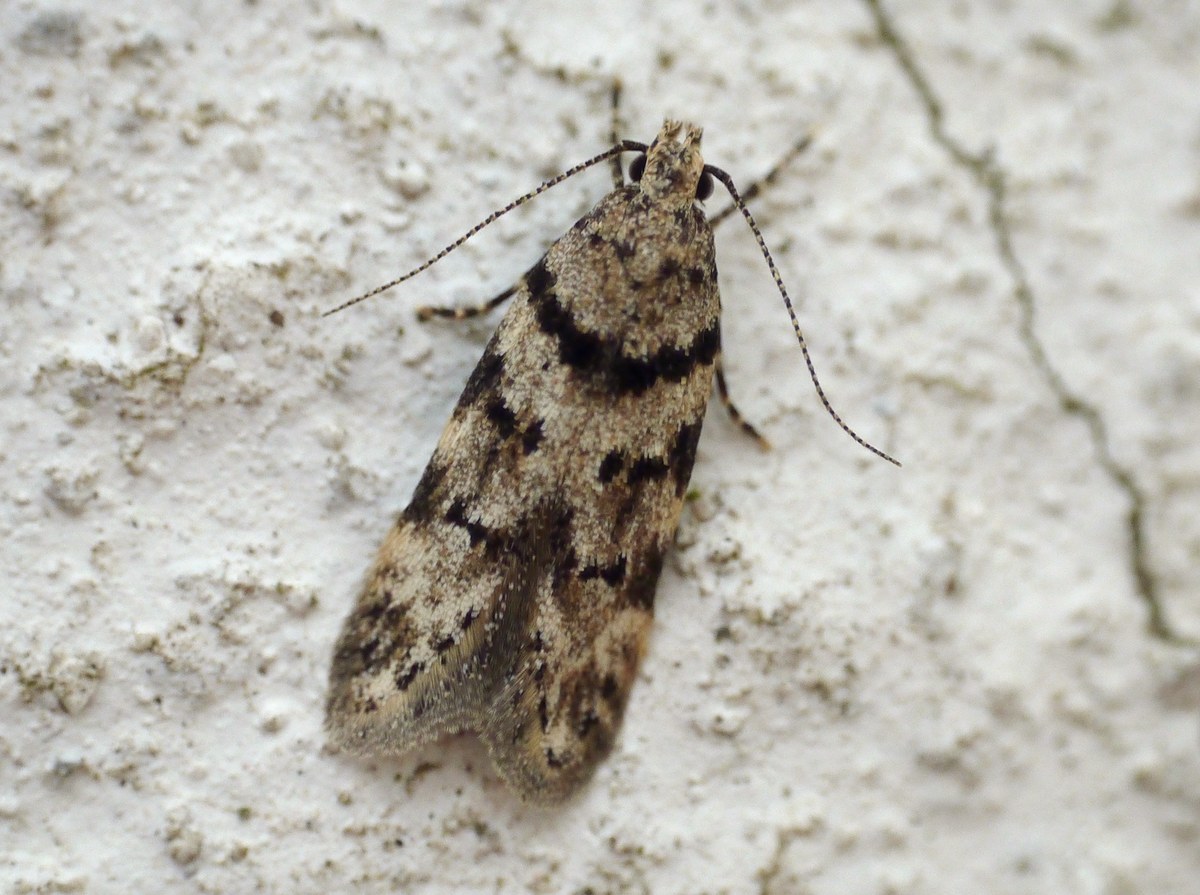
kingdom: Animalia
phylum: Arthropoda
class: Insecta
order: Lepidoptera
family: Gelechiidae
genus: Pseudotelphusa
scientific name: Pseudotelphusa istrella
